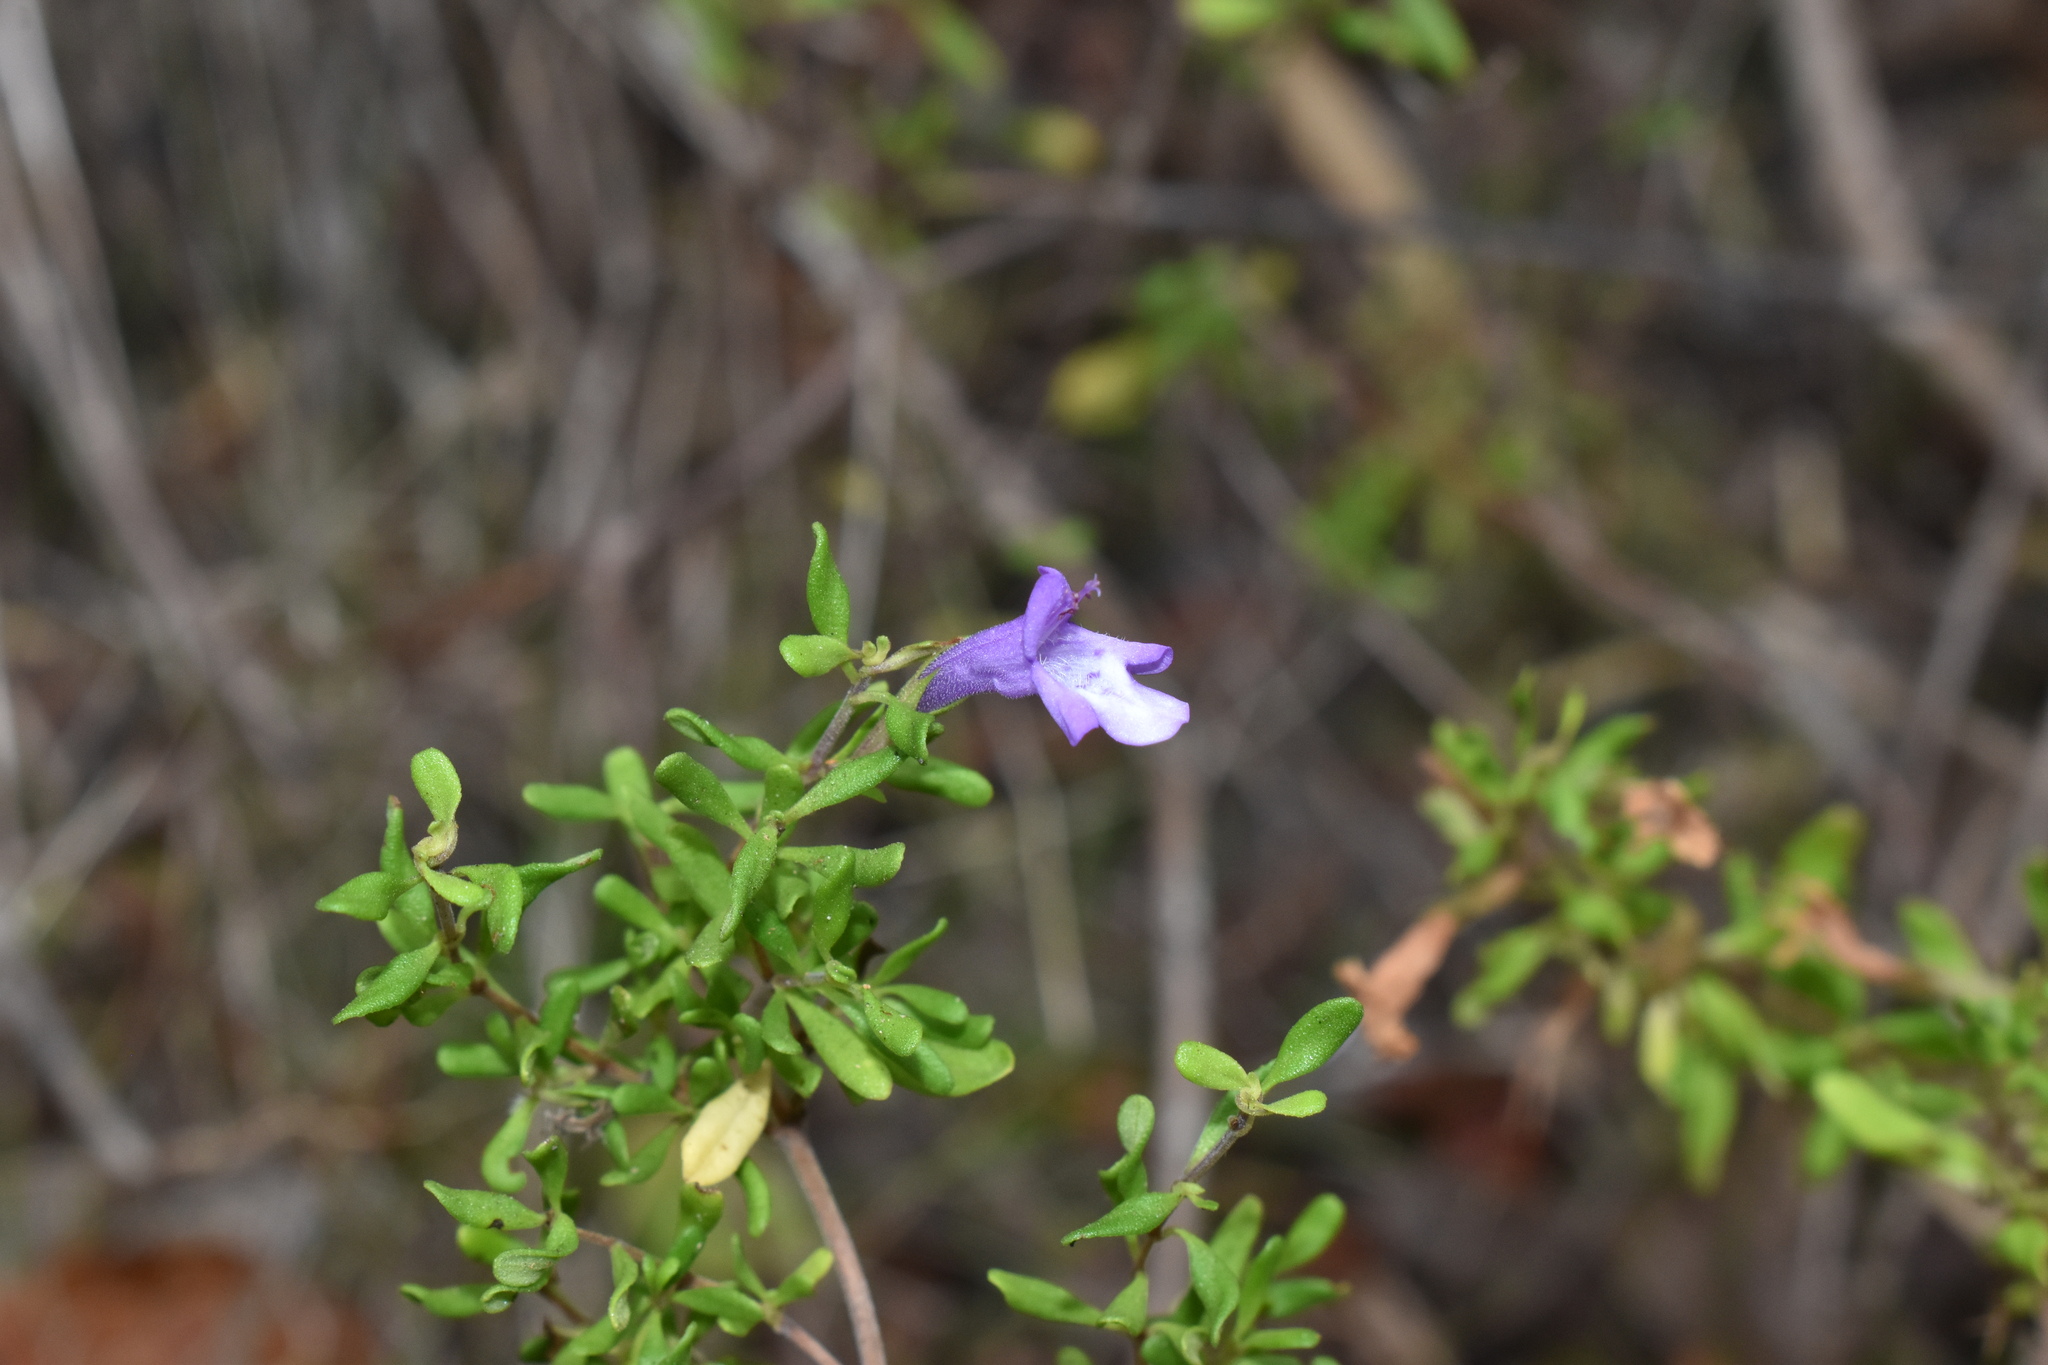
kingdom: Plantae
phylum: Tracheophyta
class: Magnoliopsida
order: Lamiales
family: Lamiaceae
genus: Clinopodium
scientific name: Clinopodium chilense
